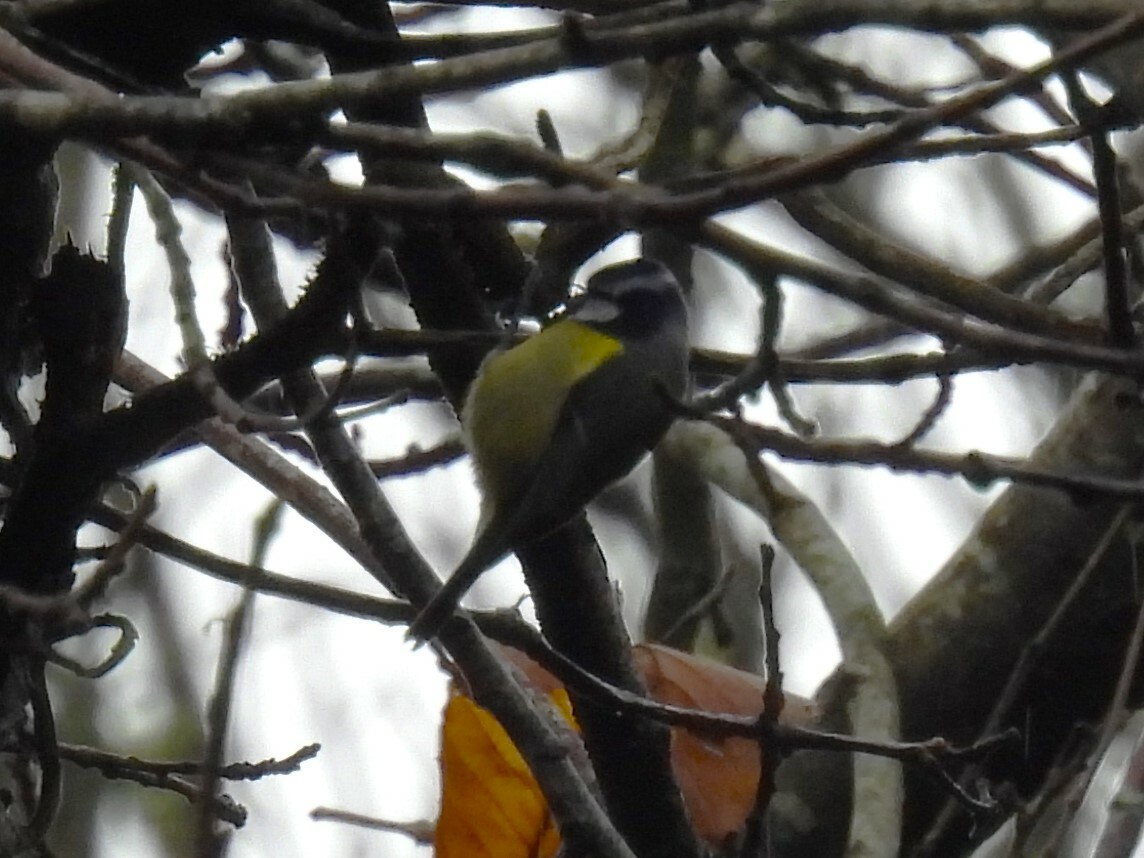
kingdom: Animalia
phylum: Chordata
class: Aves
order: Passeriformes
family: Paridae
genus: Cyanistes
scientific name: Cyanistes caeruleus
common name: Eurasian blue tit
